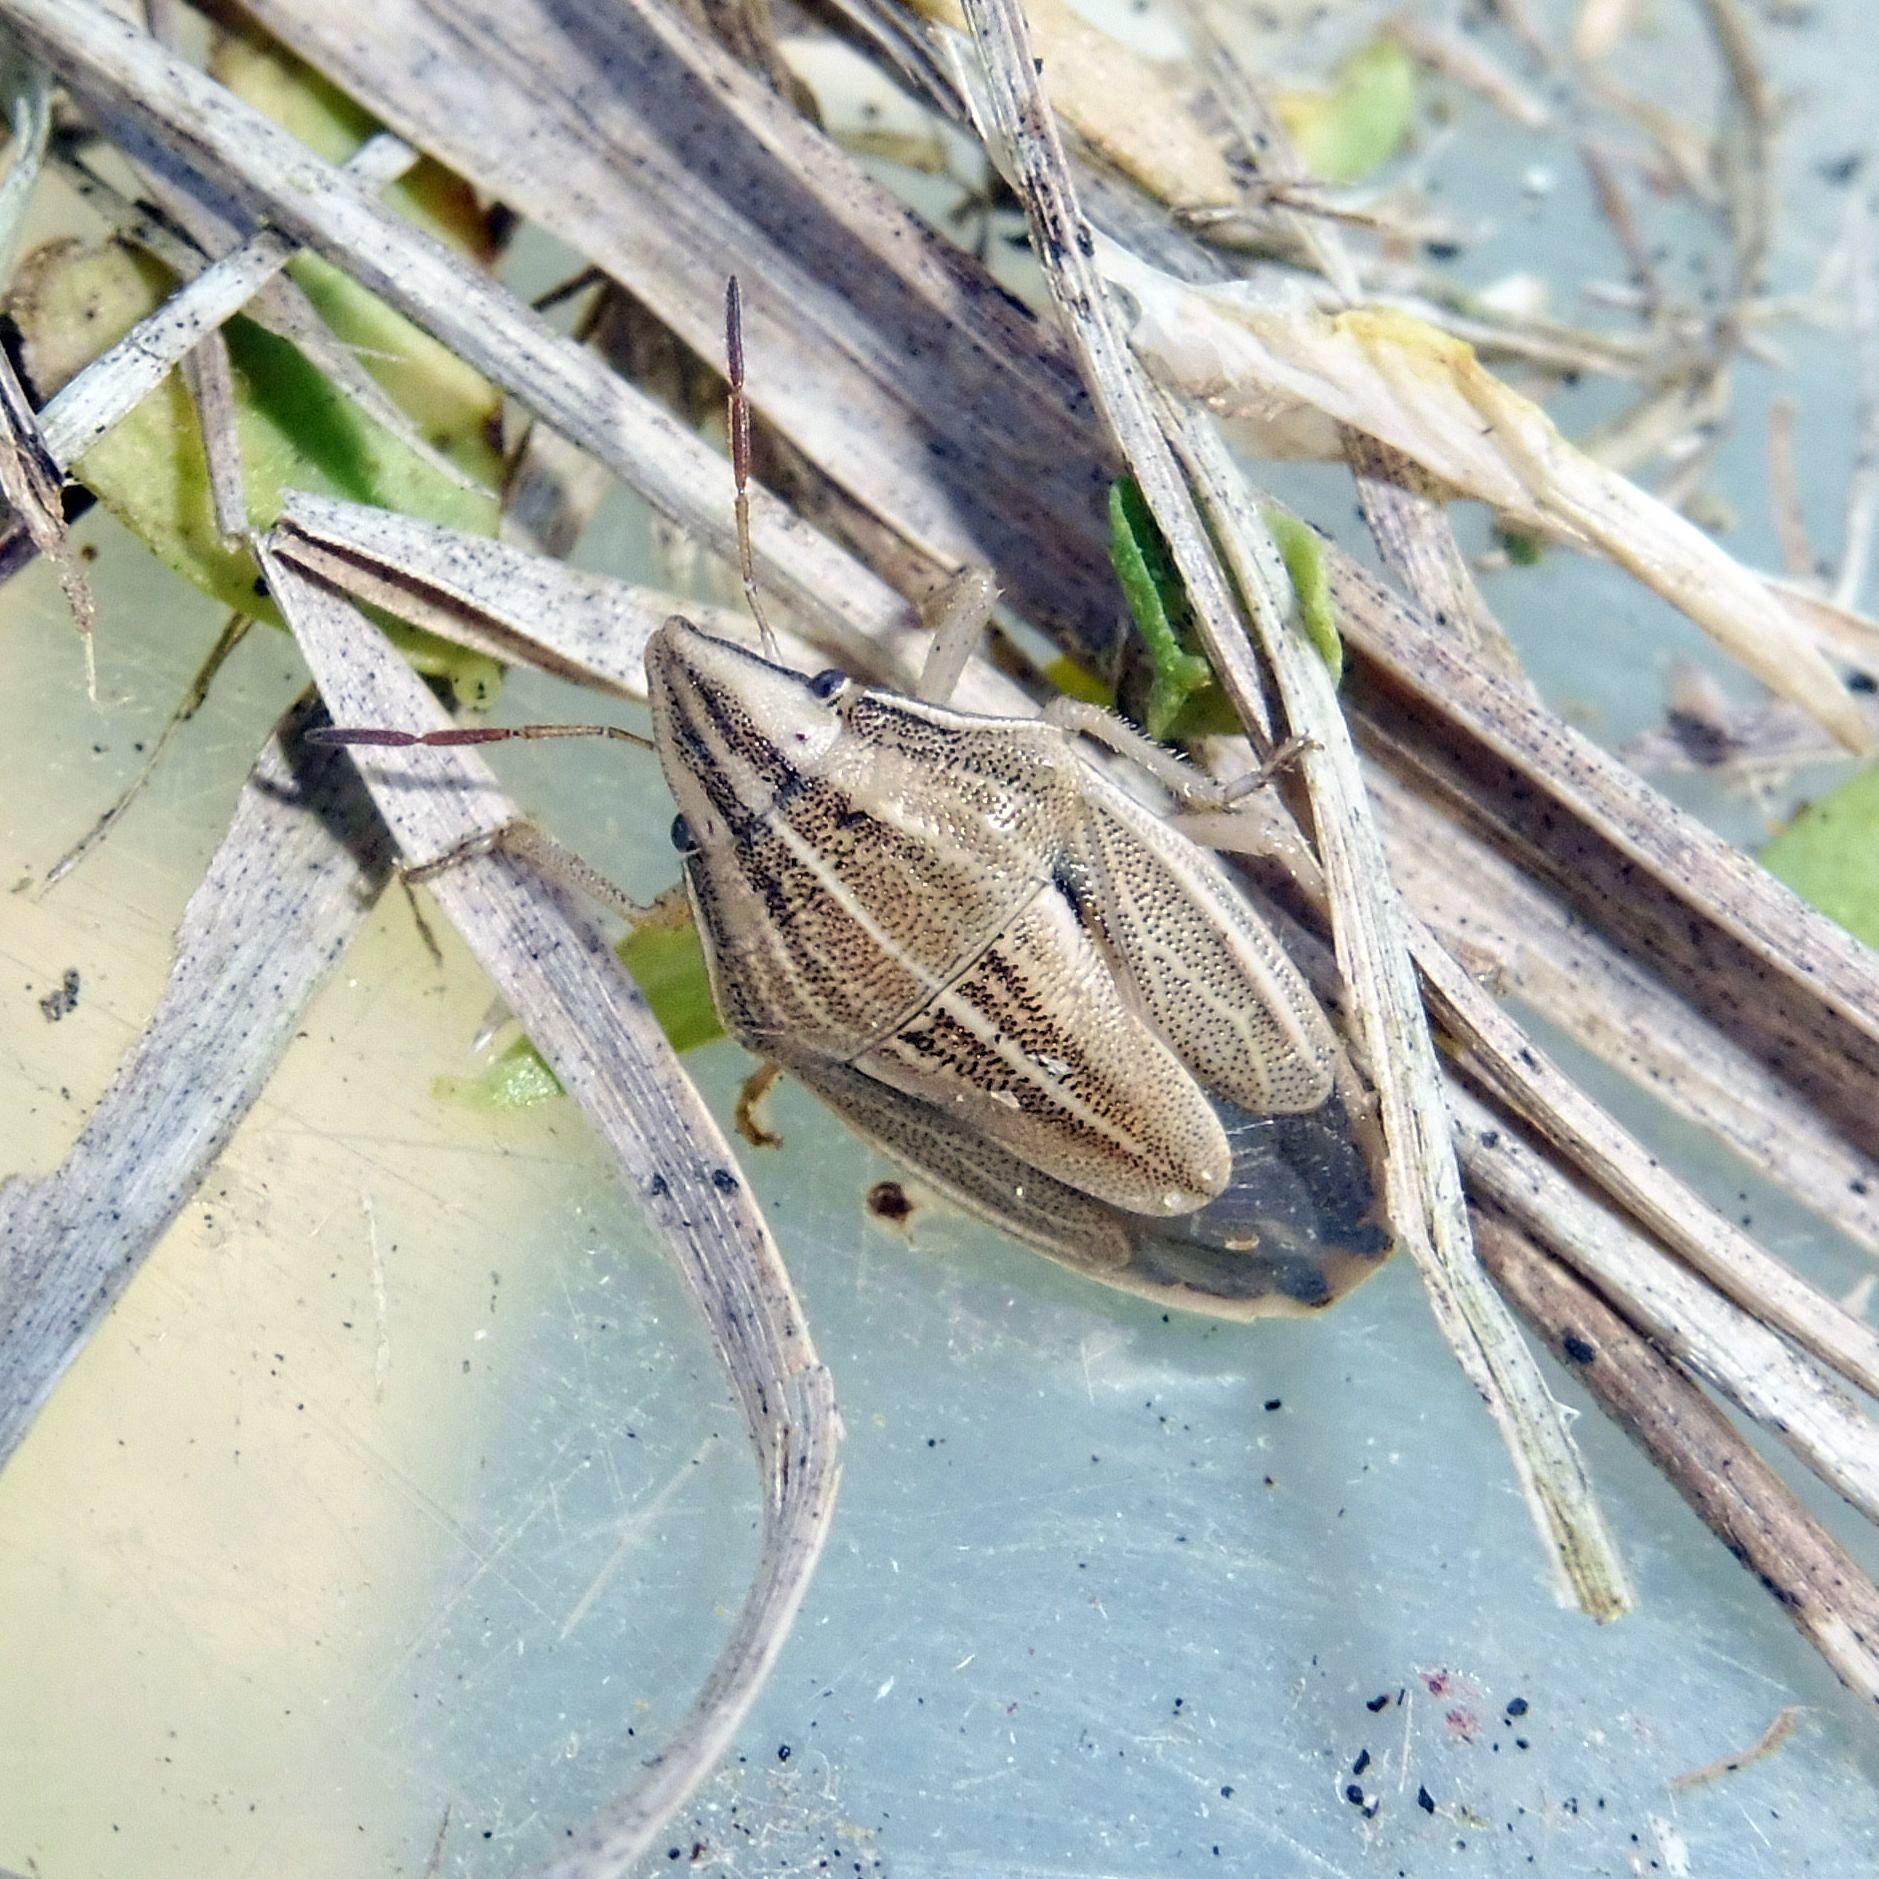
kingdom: Animalia
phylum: Arthropoda
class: Insecta
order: Hemiptera
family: Pentatomidae
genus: Aelia
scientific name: Aelia acuminata
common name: Bishop's mitre
